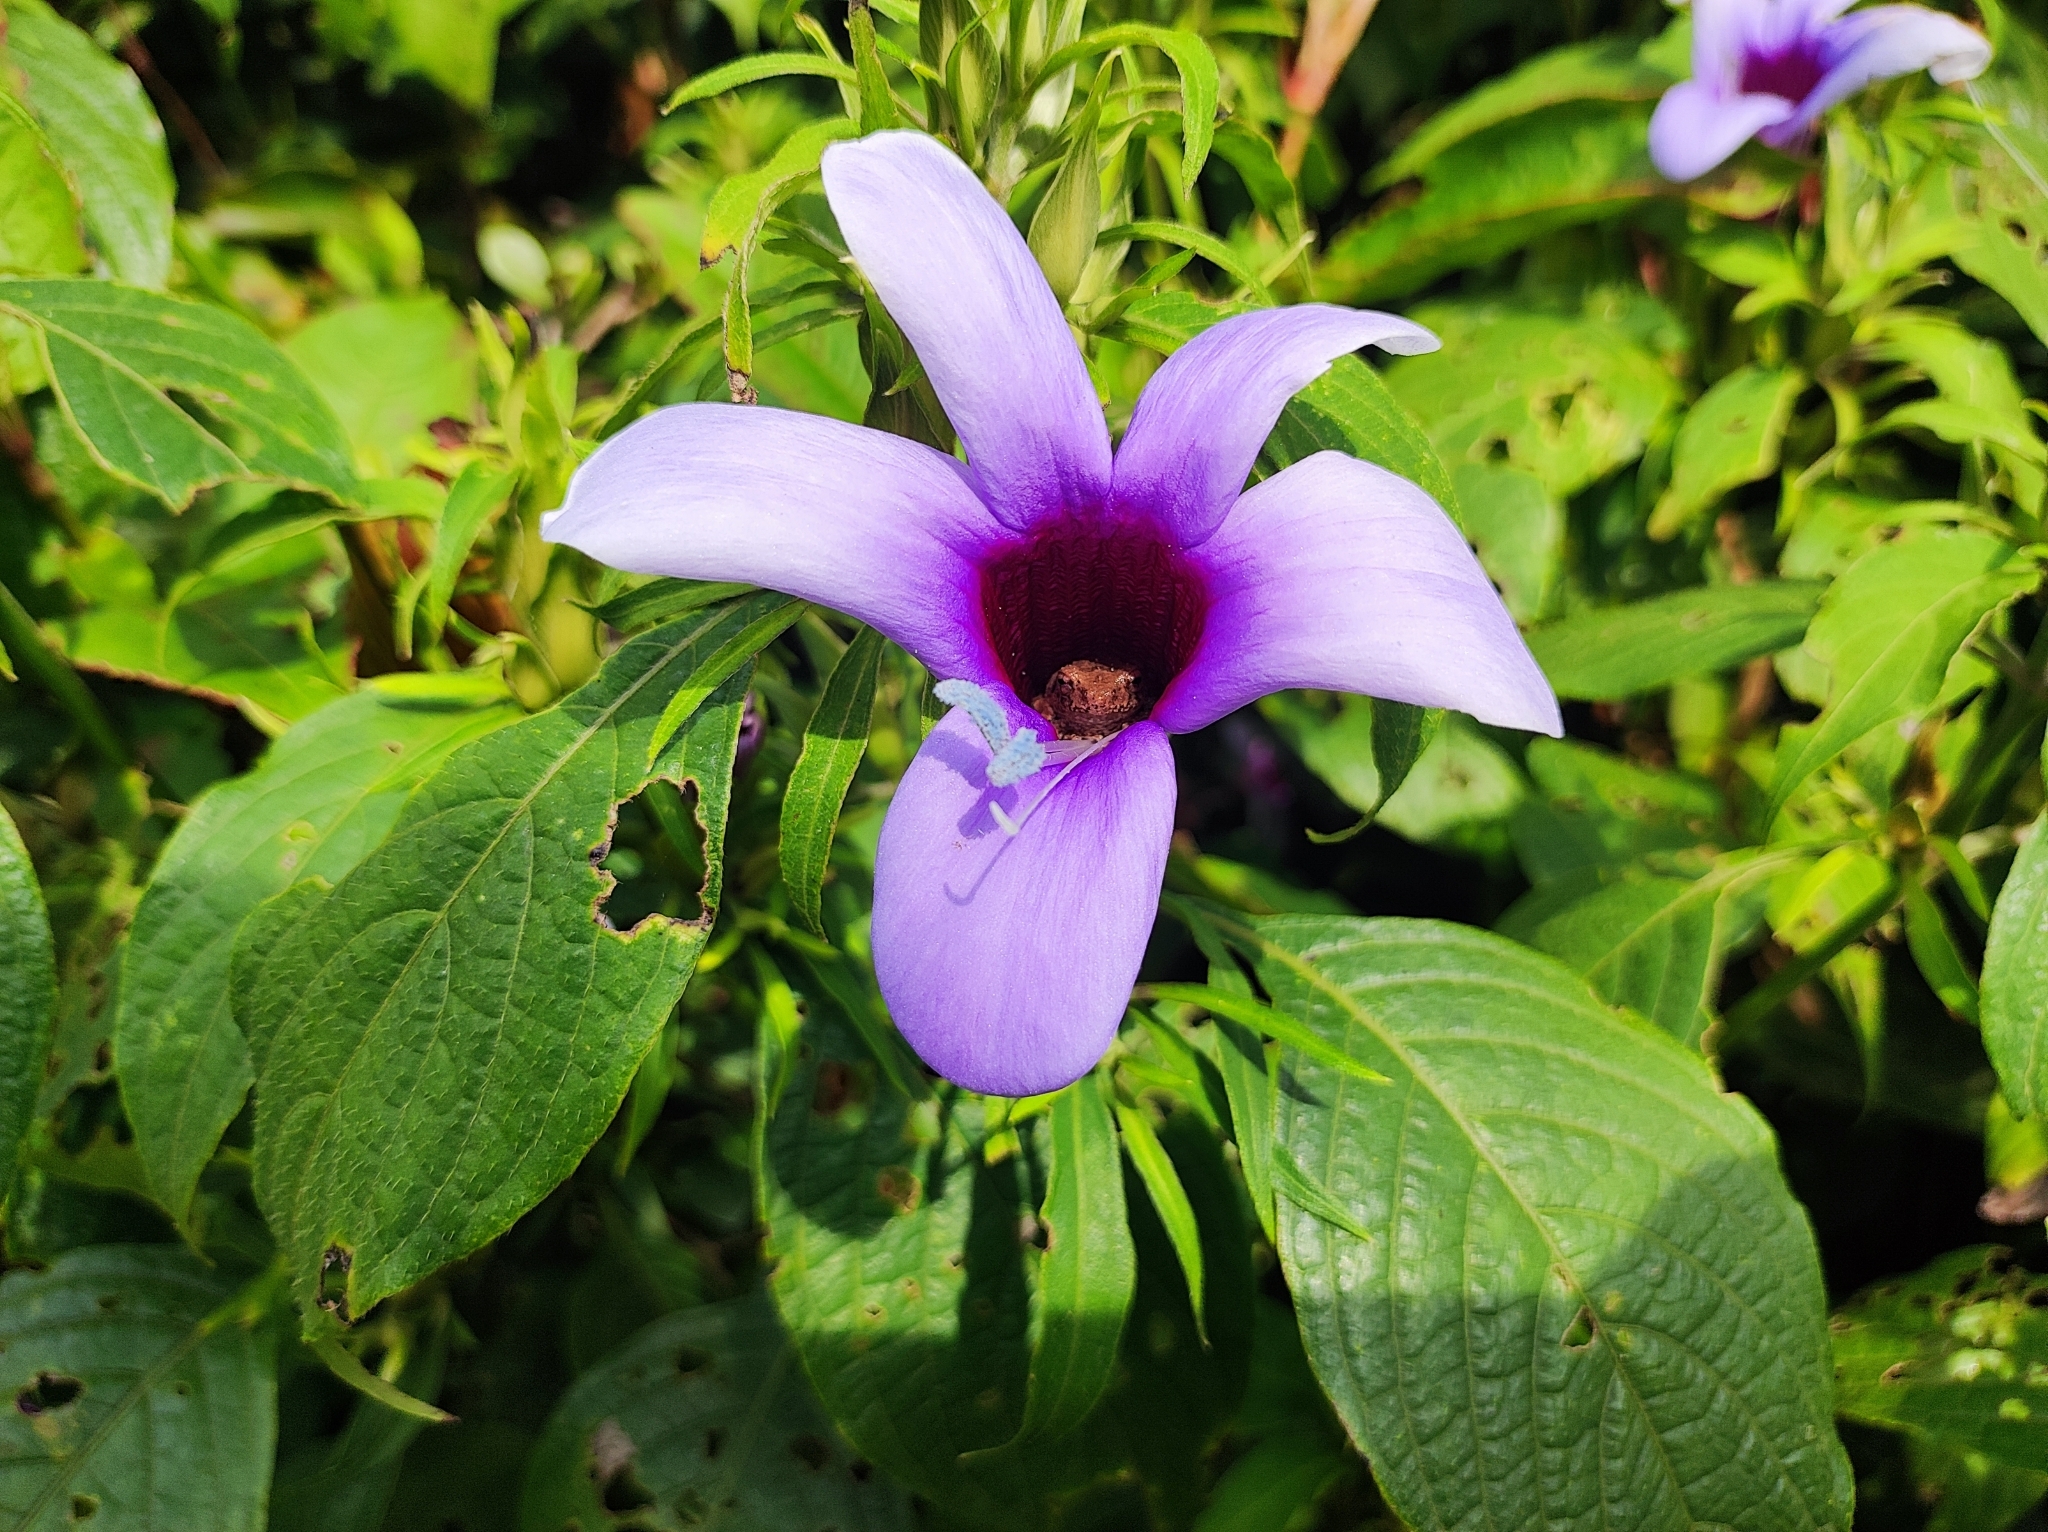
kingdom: Plantae
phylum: Tracheophyta
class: Magnoliopsida
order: Lamiales
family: Acanthaceae
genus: Barleria
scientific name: Barleria involucrata
